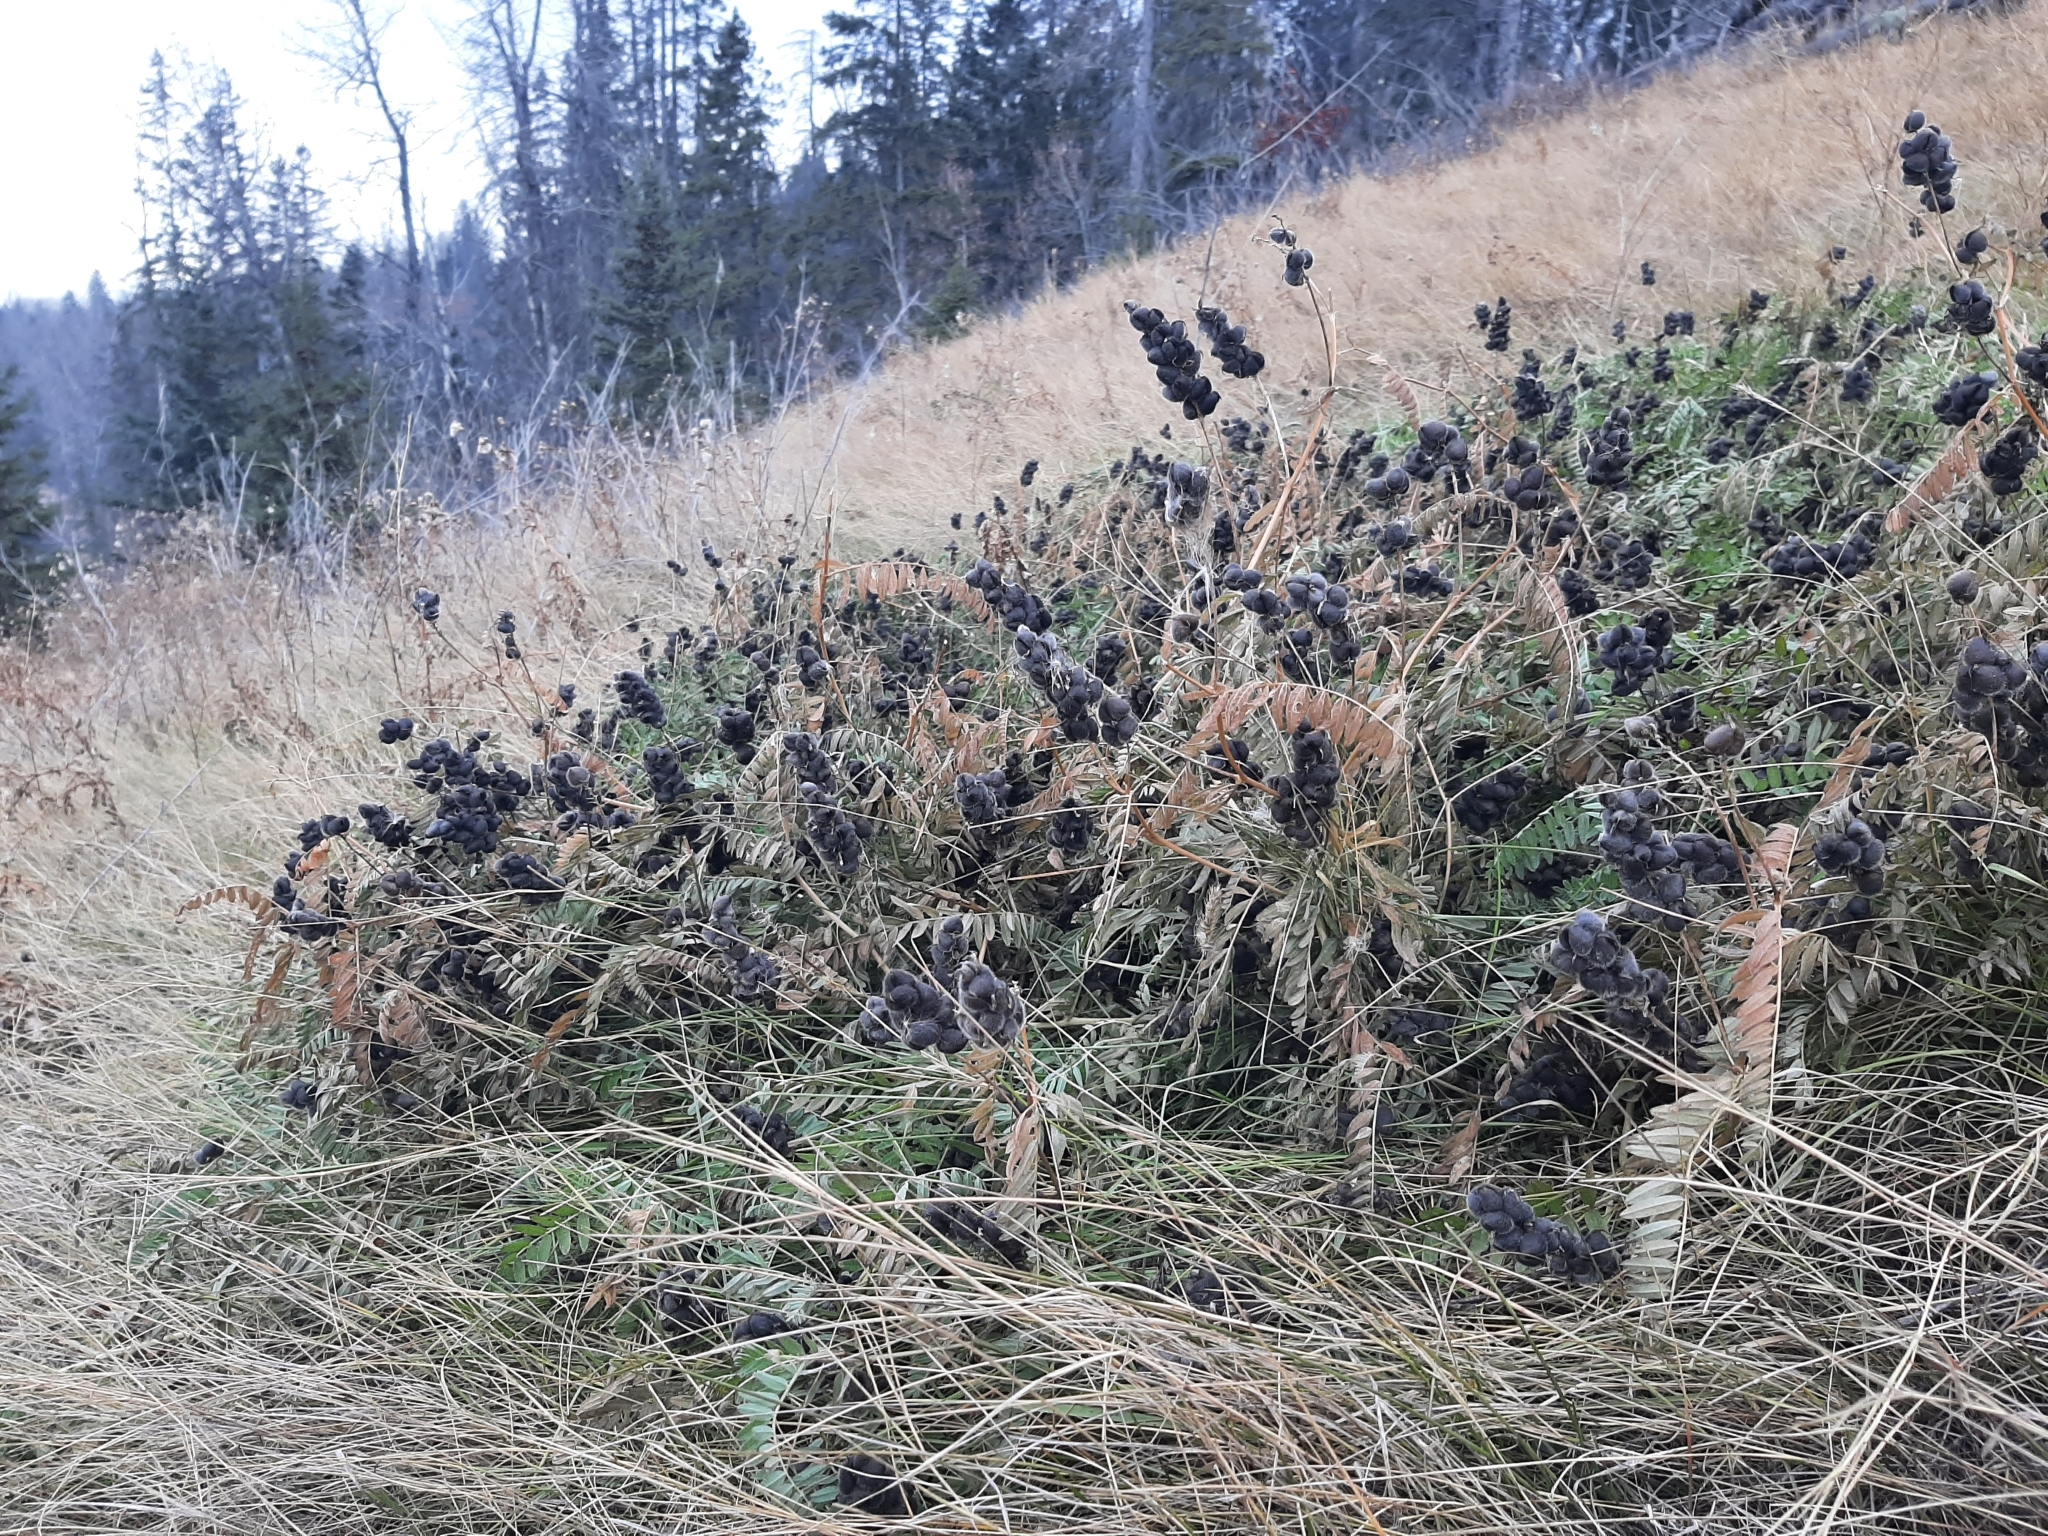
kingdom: Plantae
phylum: Tracheophyta
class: Magnoliopsida
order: Fabales
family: Fabaceae
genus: Astragalus
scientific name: Astragalus cicer
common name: Chick-pea milk-vetch
